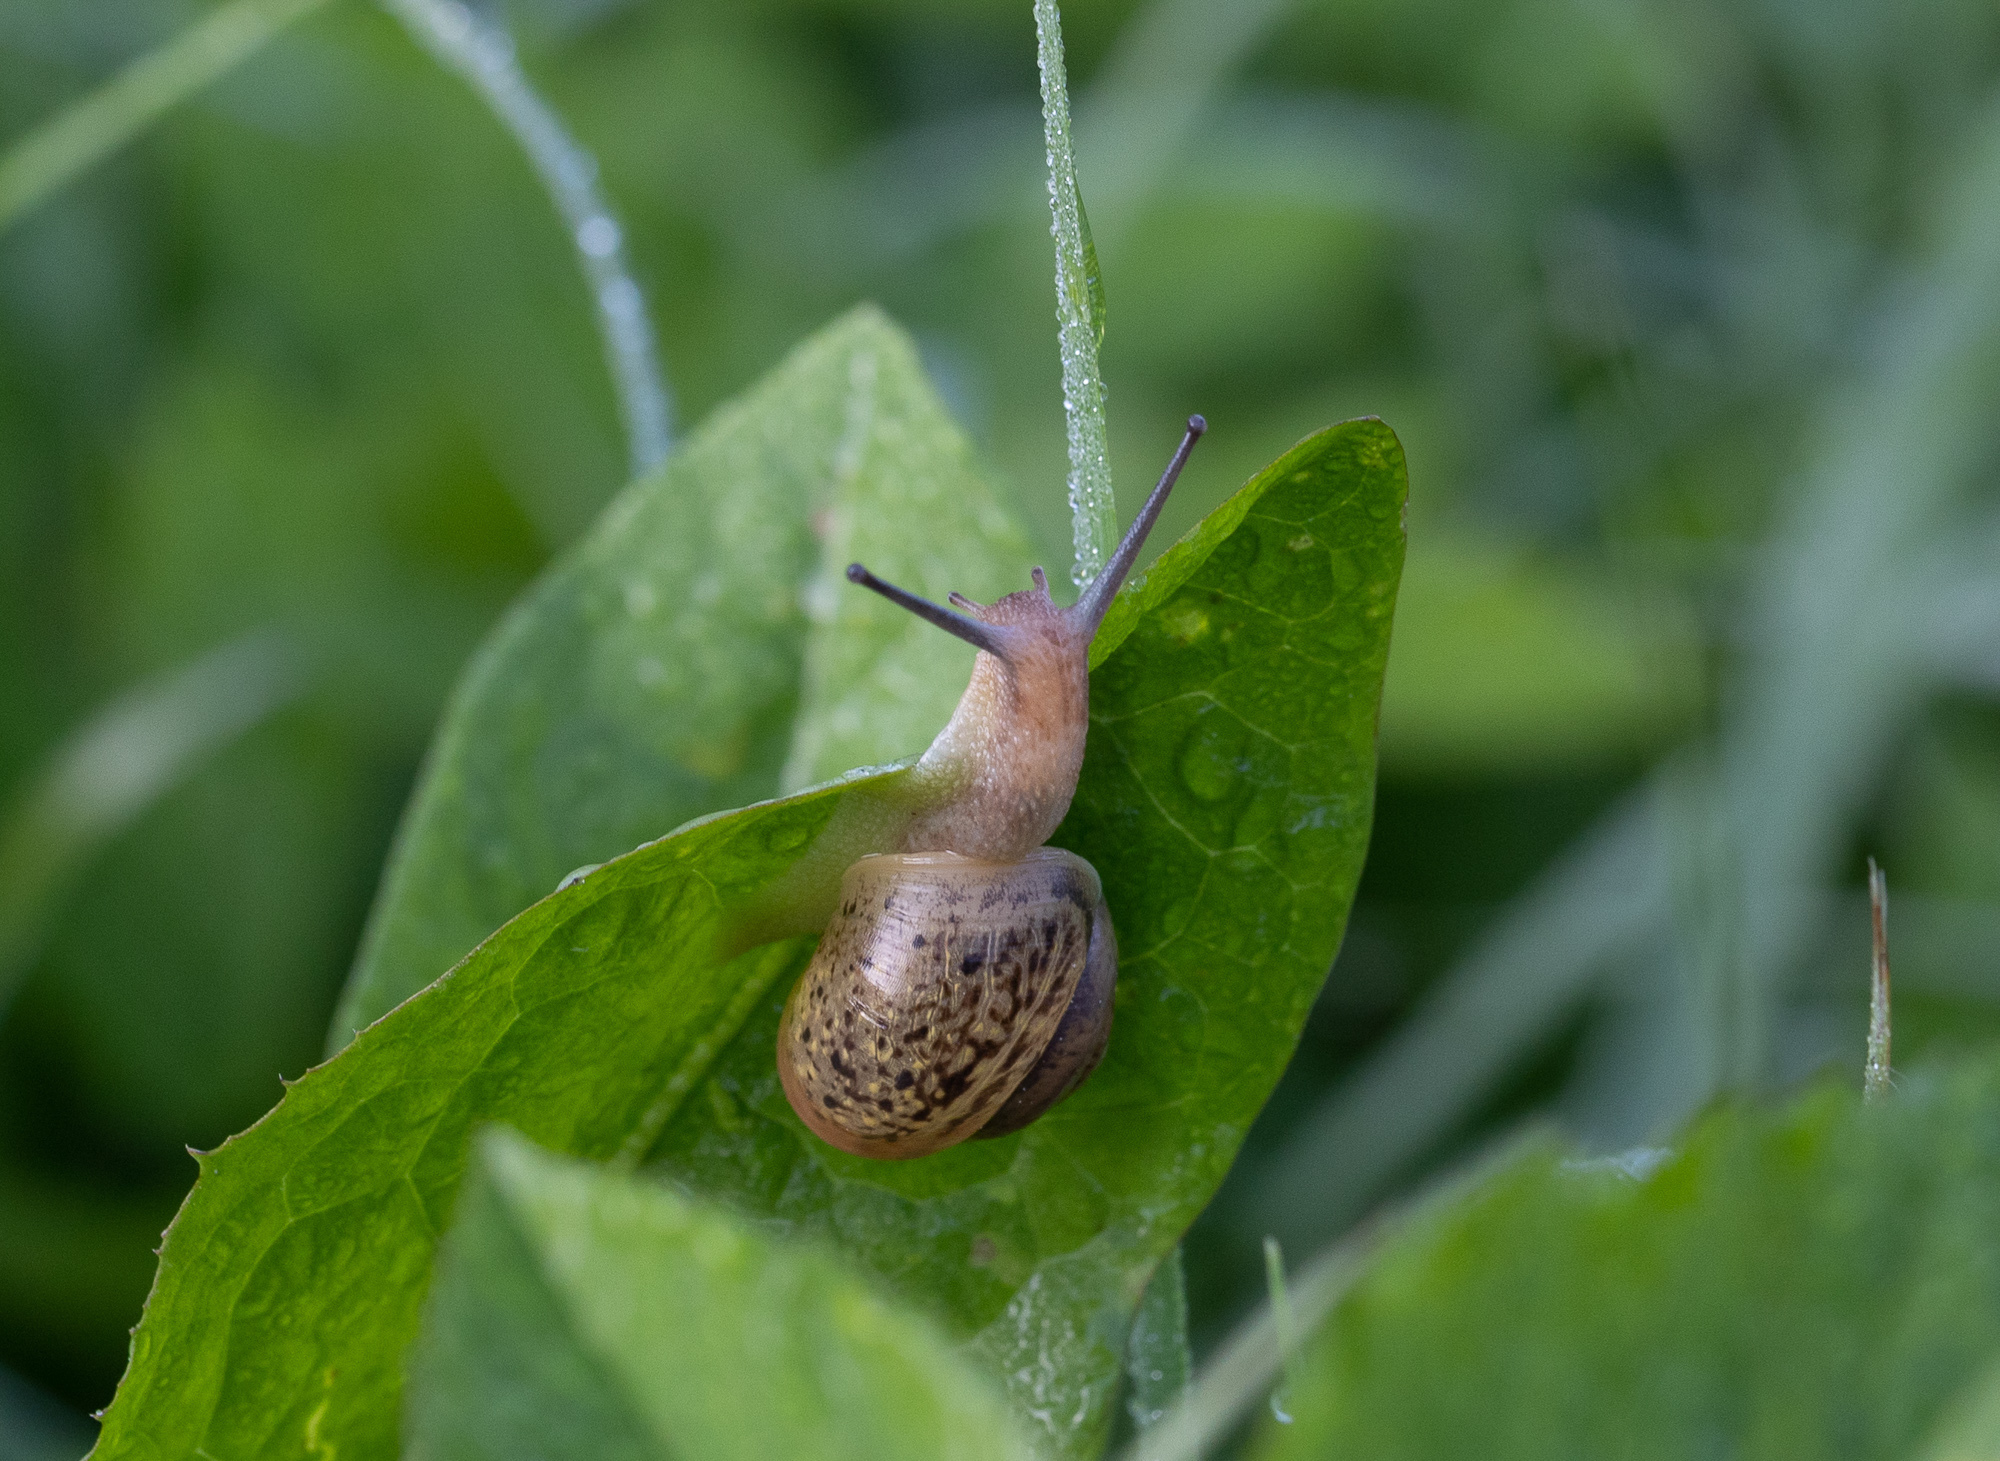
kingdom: Animalia
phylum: Mollusca
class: Gastropoda
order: Stylommatophora
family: Camaenidae
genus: Fruticicola
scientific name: Fruticicola fruticum
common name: Bush snail
